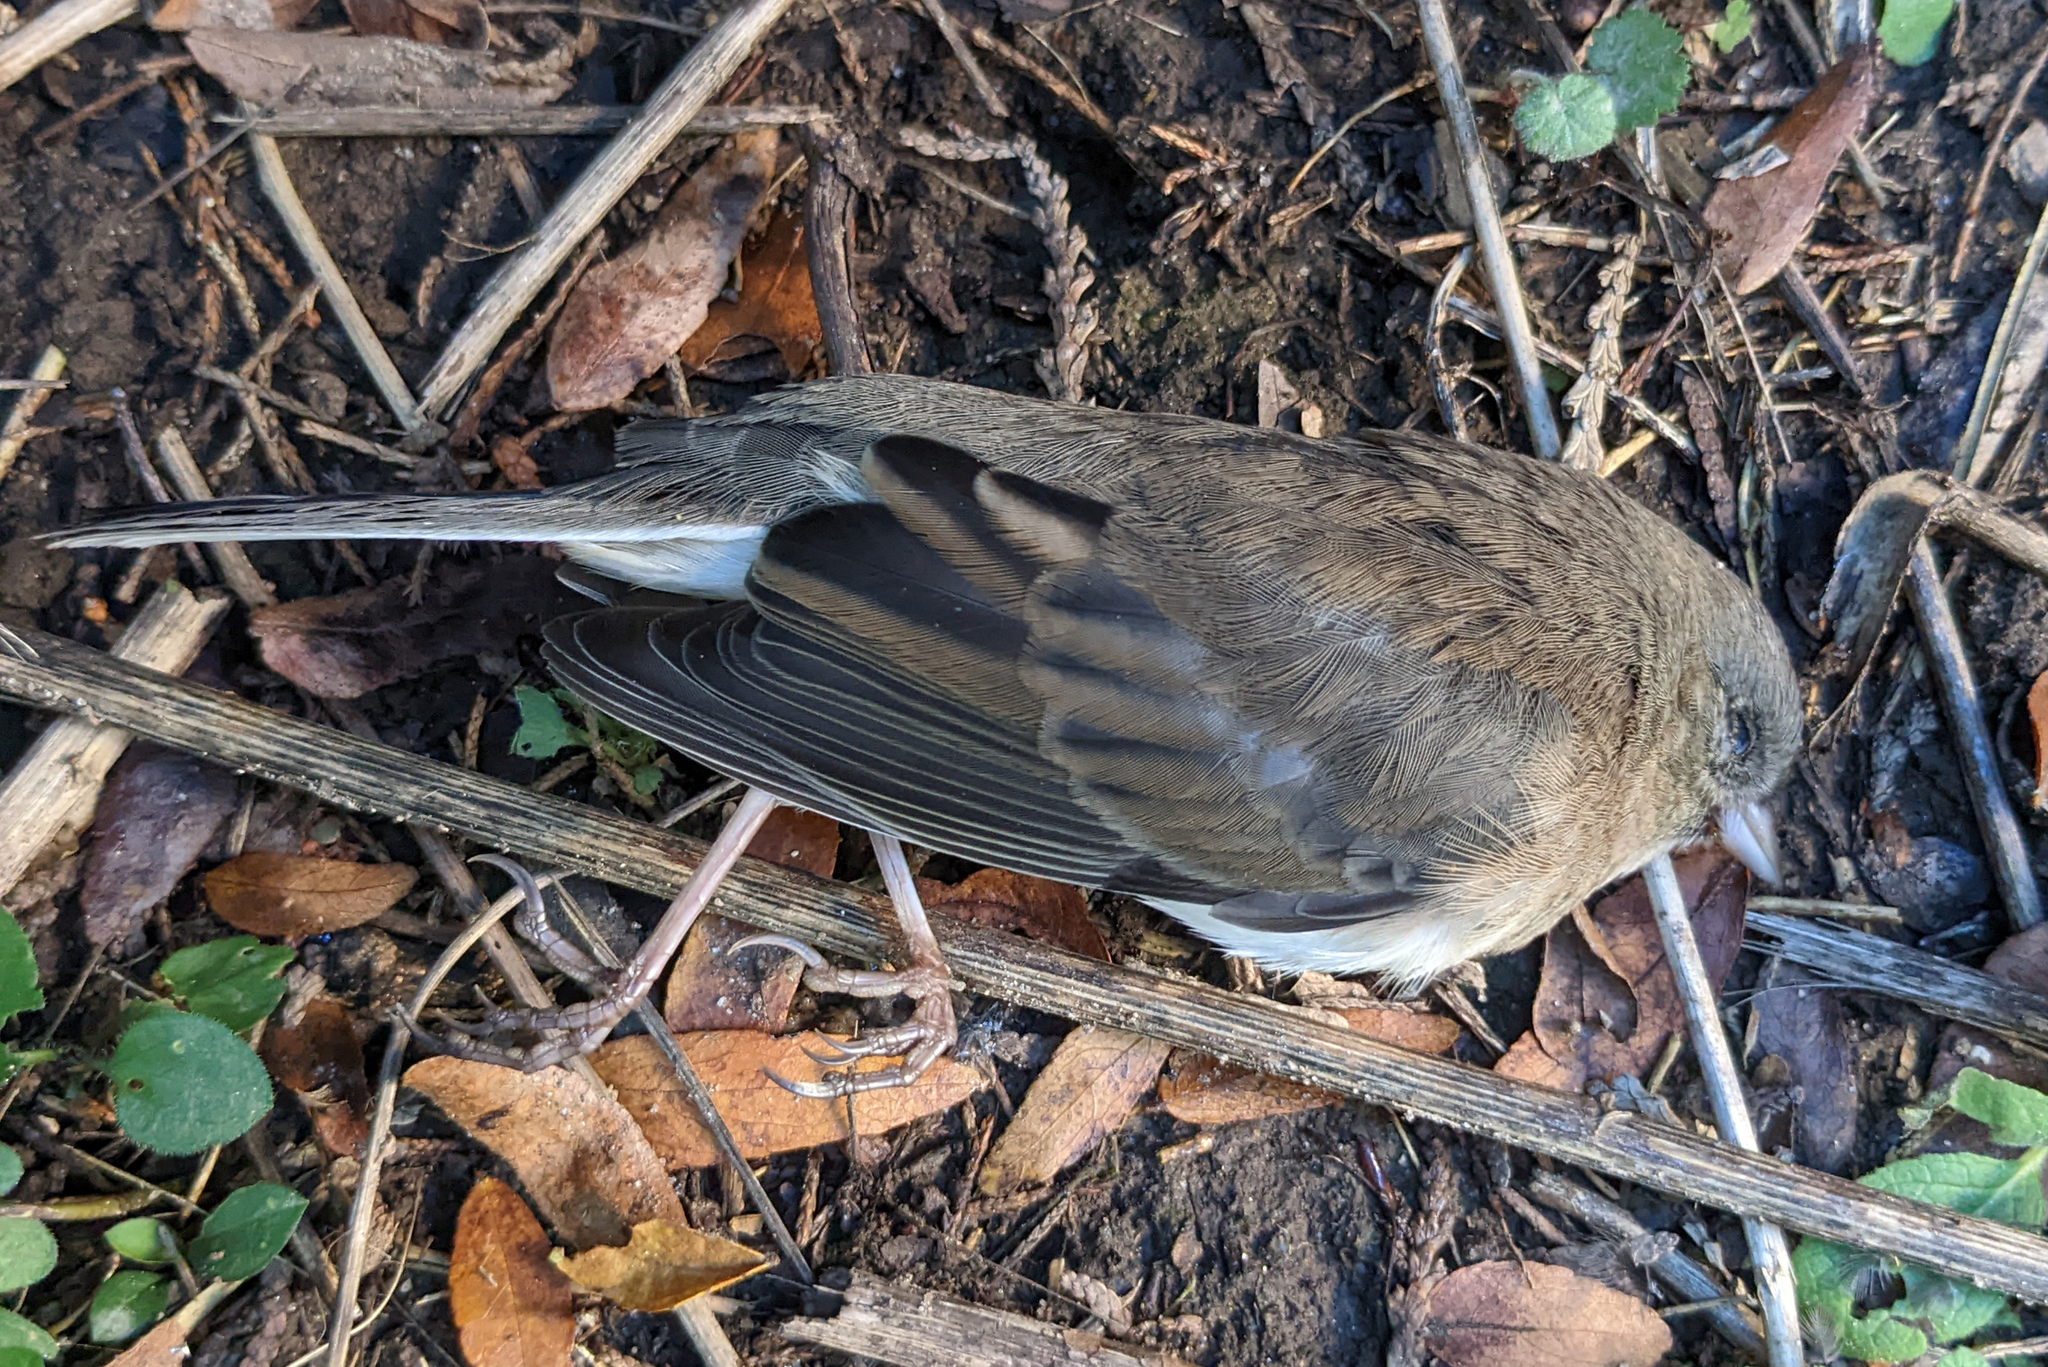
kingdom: Animalia
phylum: Chordata
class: Aves
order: Passeriformes
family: Passerellidae
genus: Junco
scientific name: Junco hyemalis
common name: Dark-eyed junco
